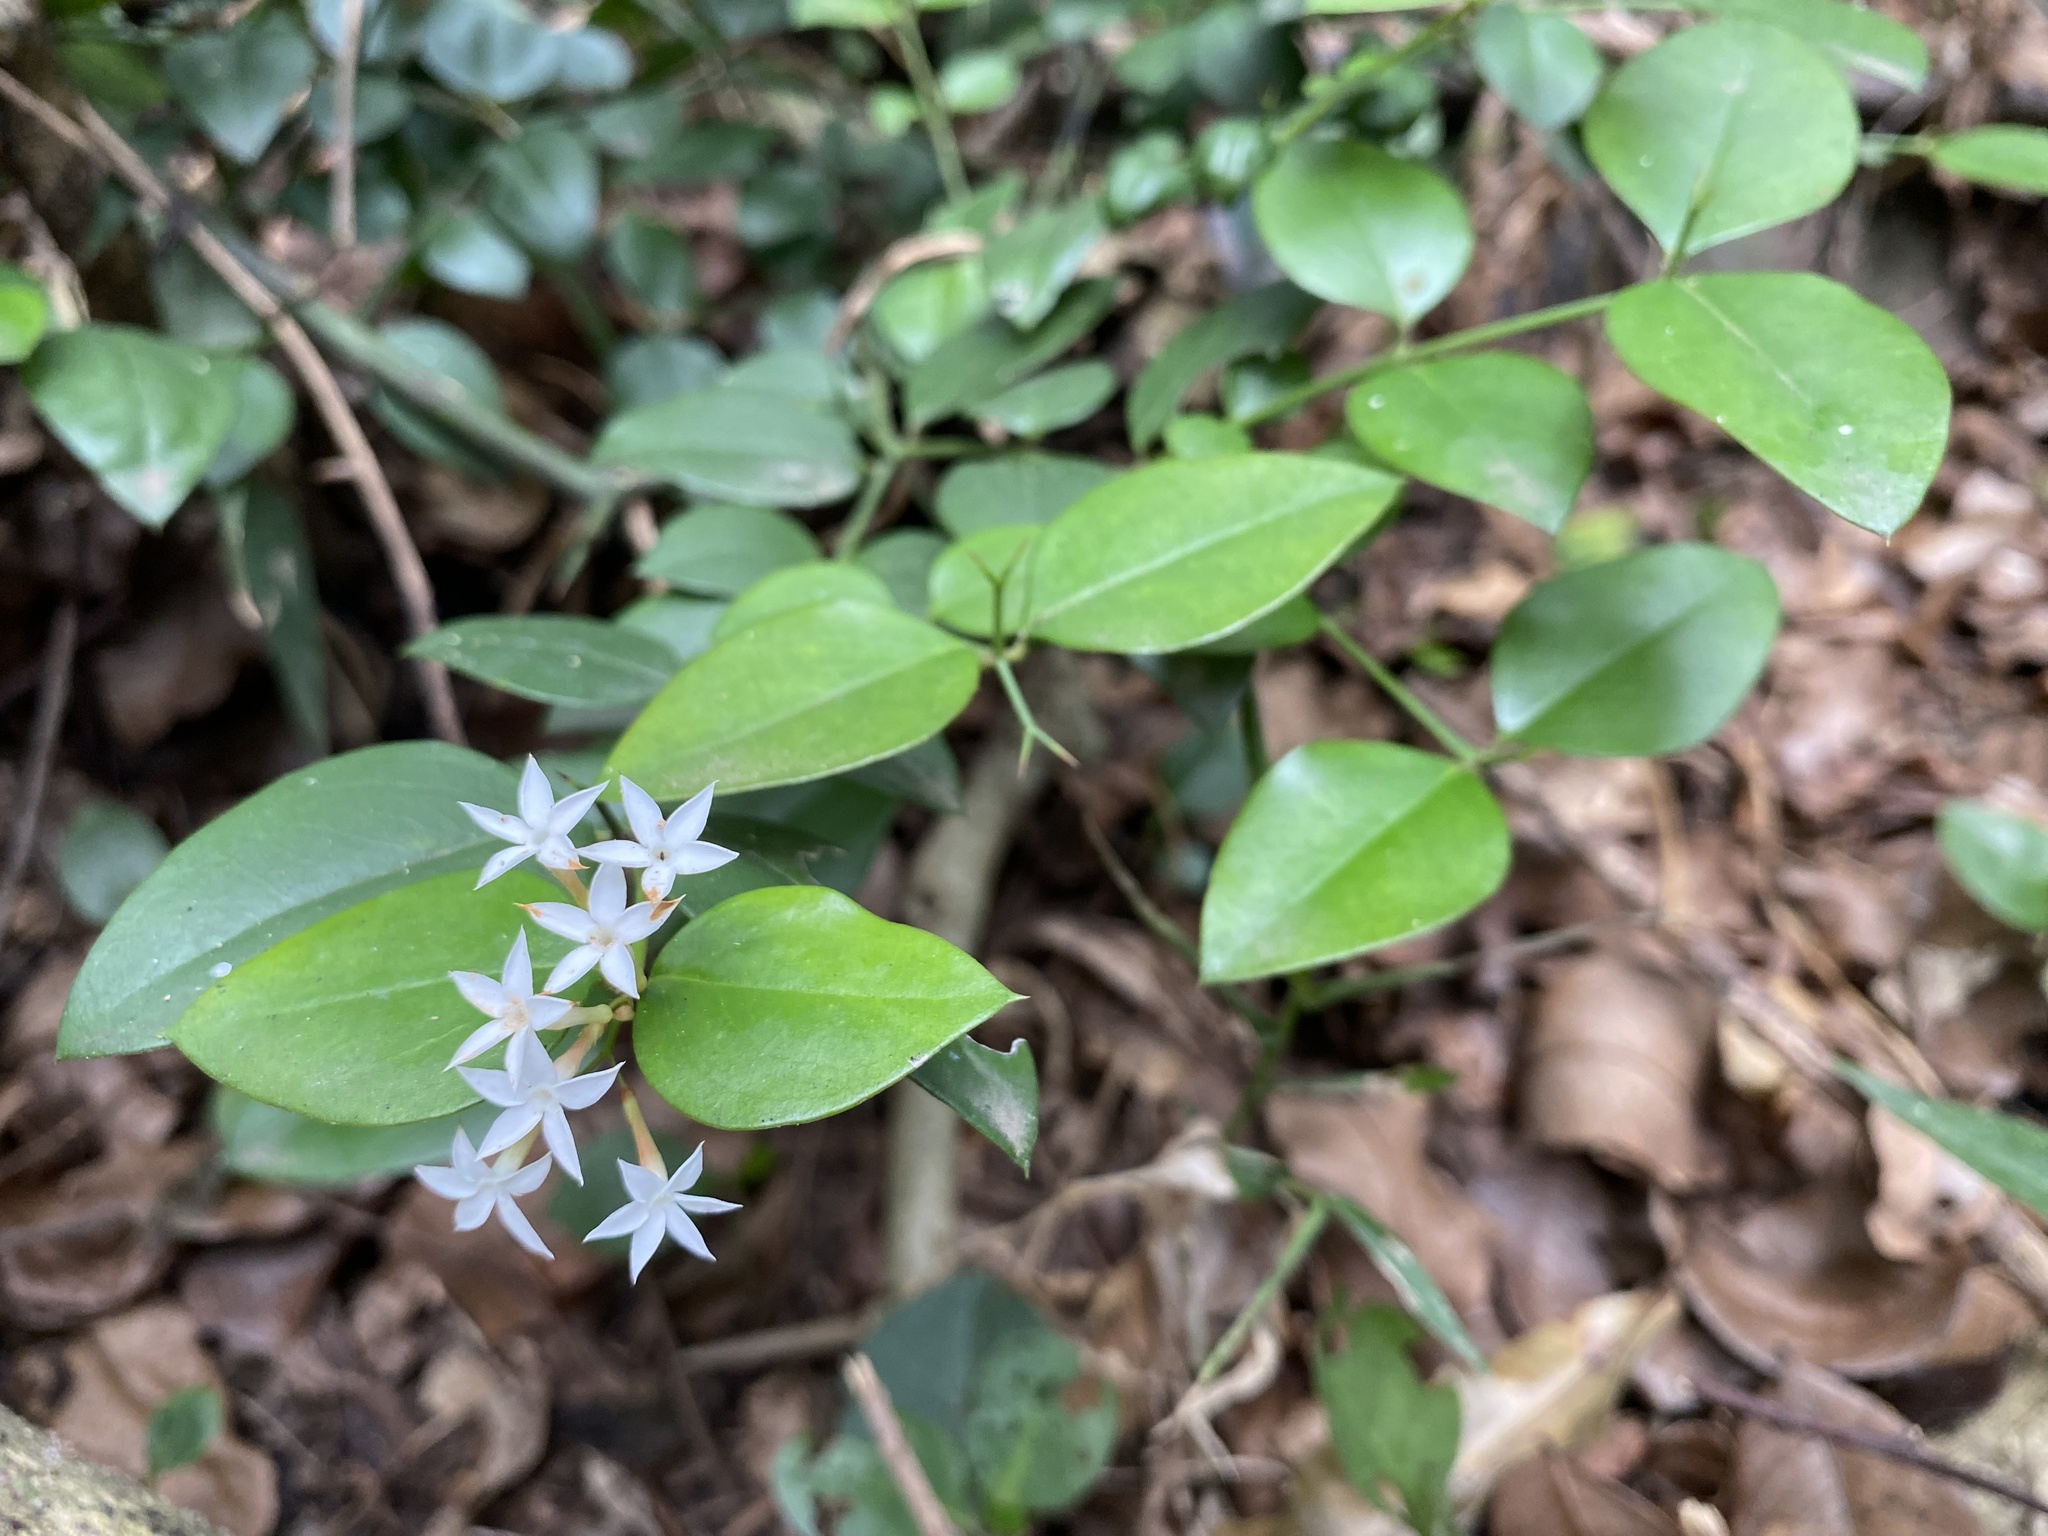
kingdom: Plantae
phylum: Tracheophyta
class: Magnoliopsida
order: Gentianales
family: Apocynaceae
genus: Carissa
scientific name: Carissa bispinosa
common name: Forest num-num
